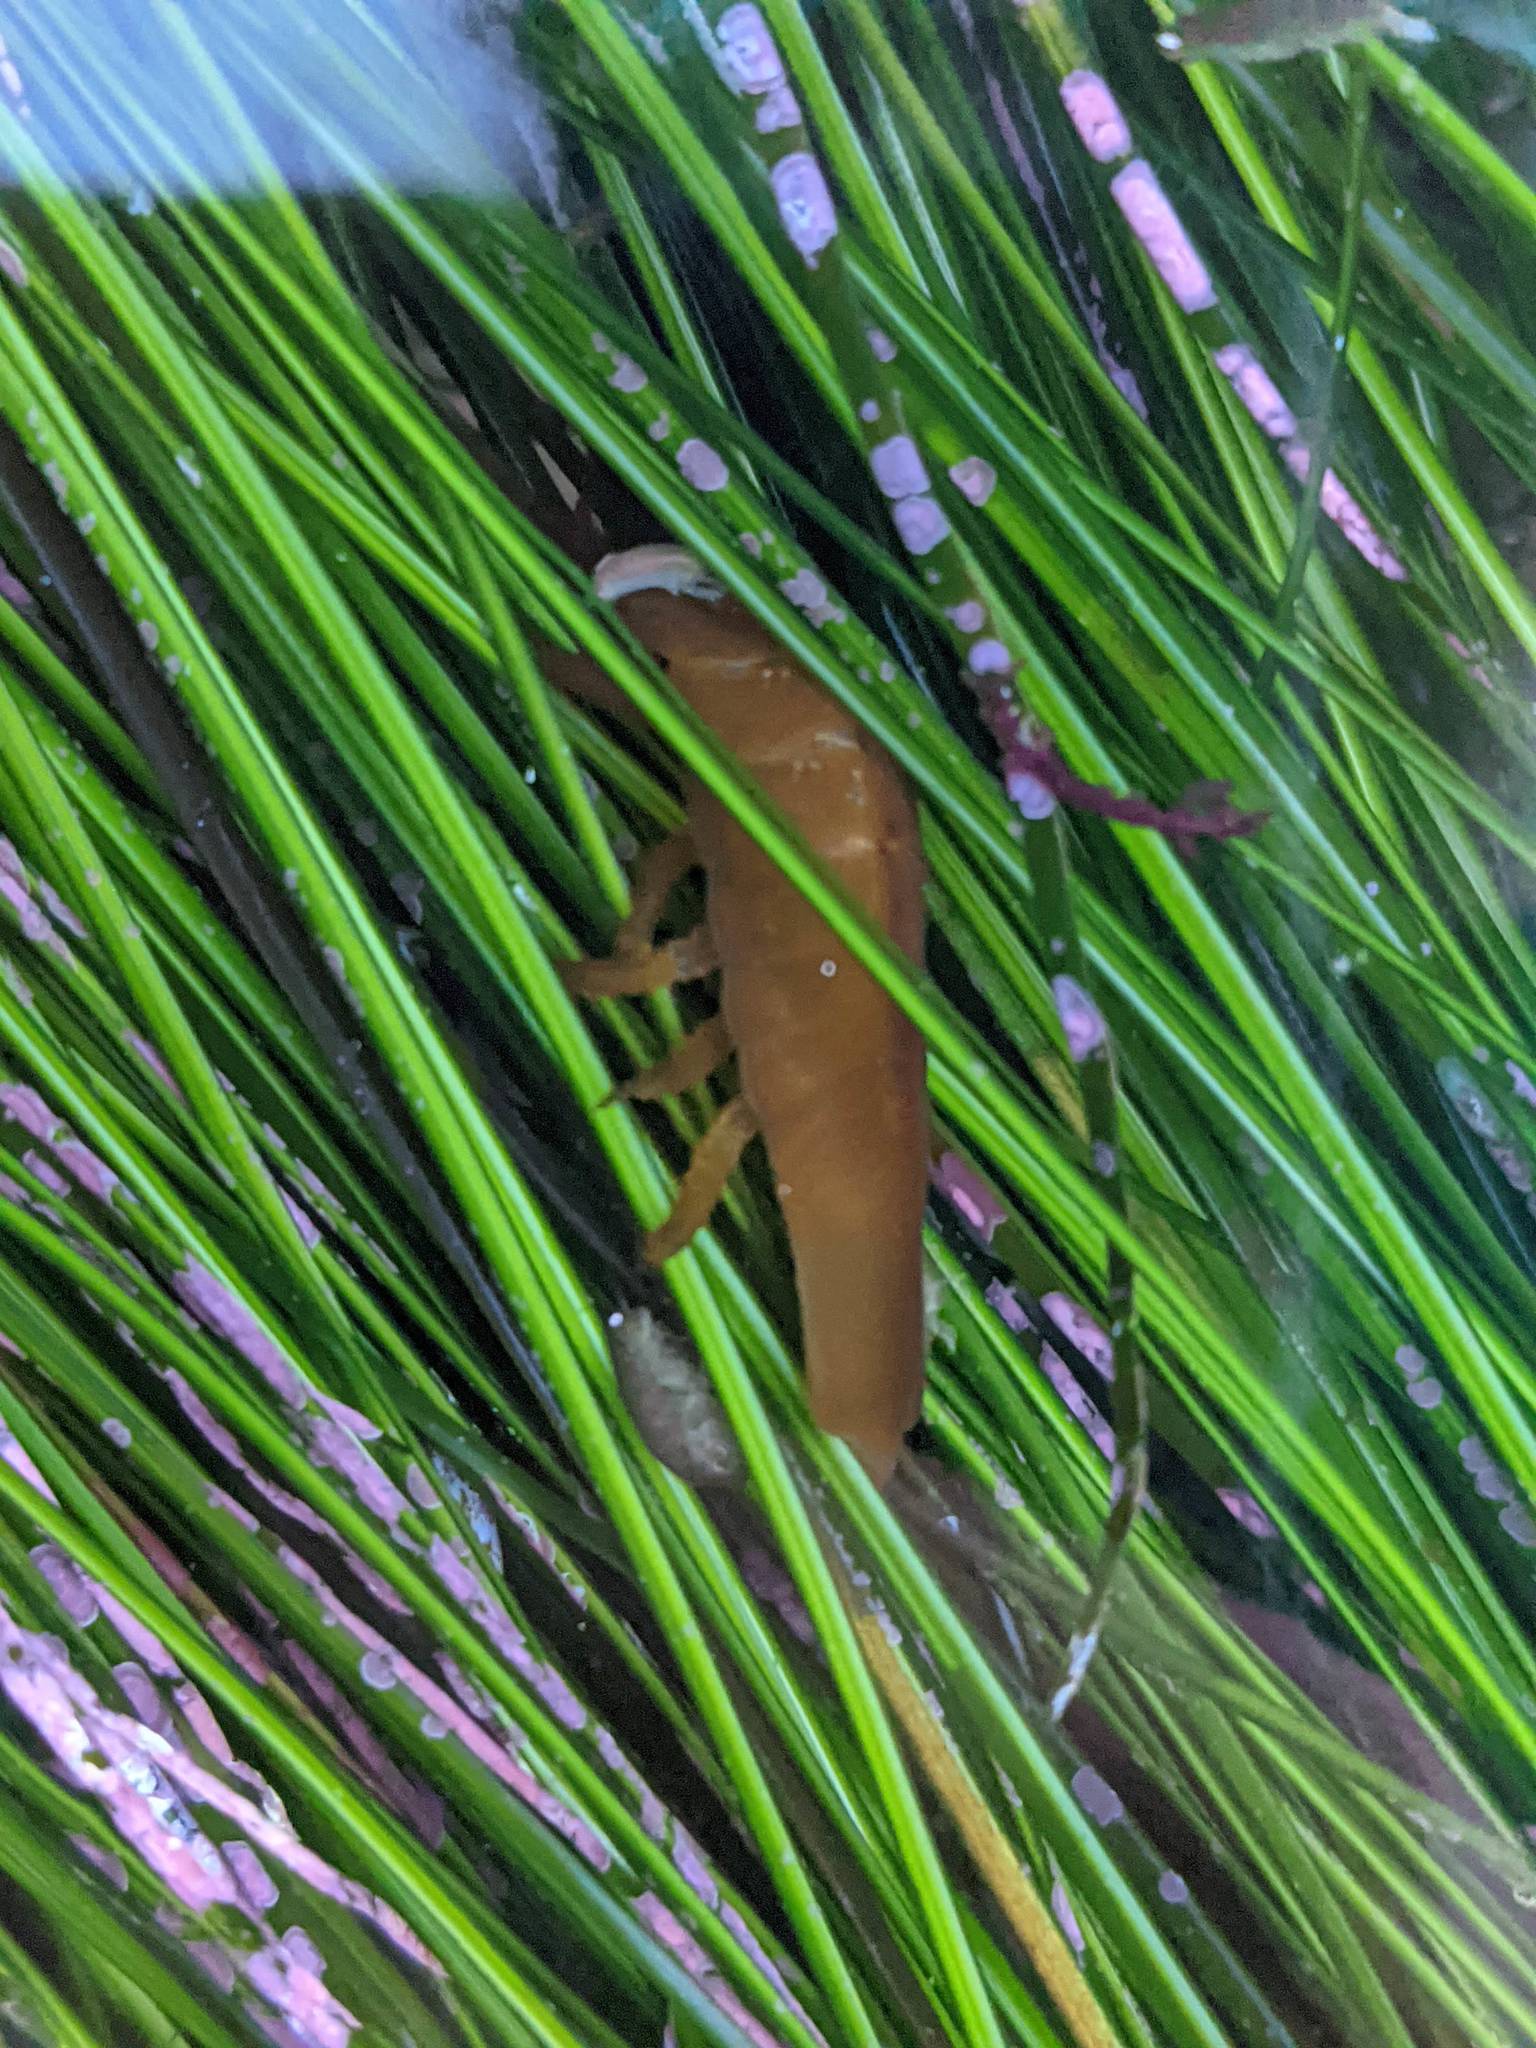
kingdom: Animalia
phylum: Arthropoda
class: Malacostraca
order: Isopoda
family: Idoteidae
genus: Pentidotea
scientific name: Pentidotea stenops
